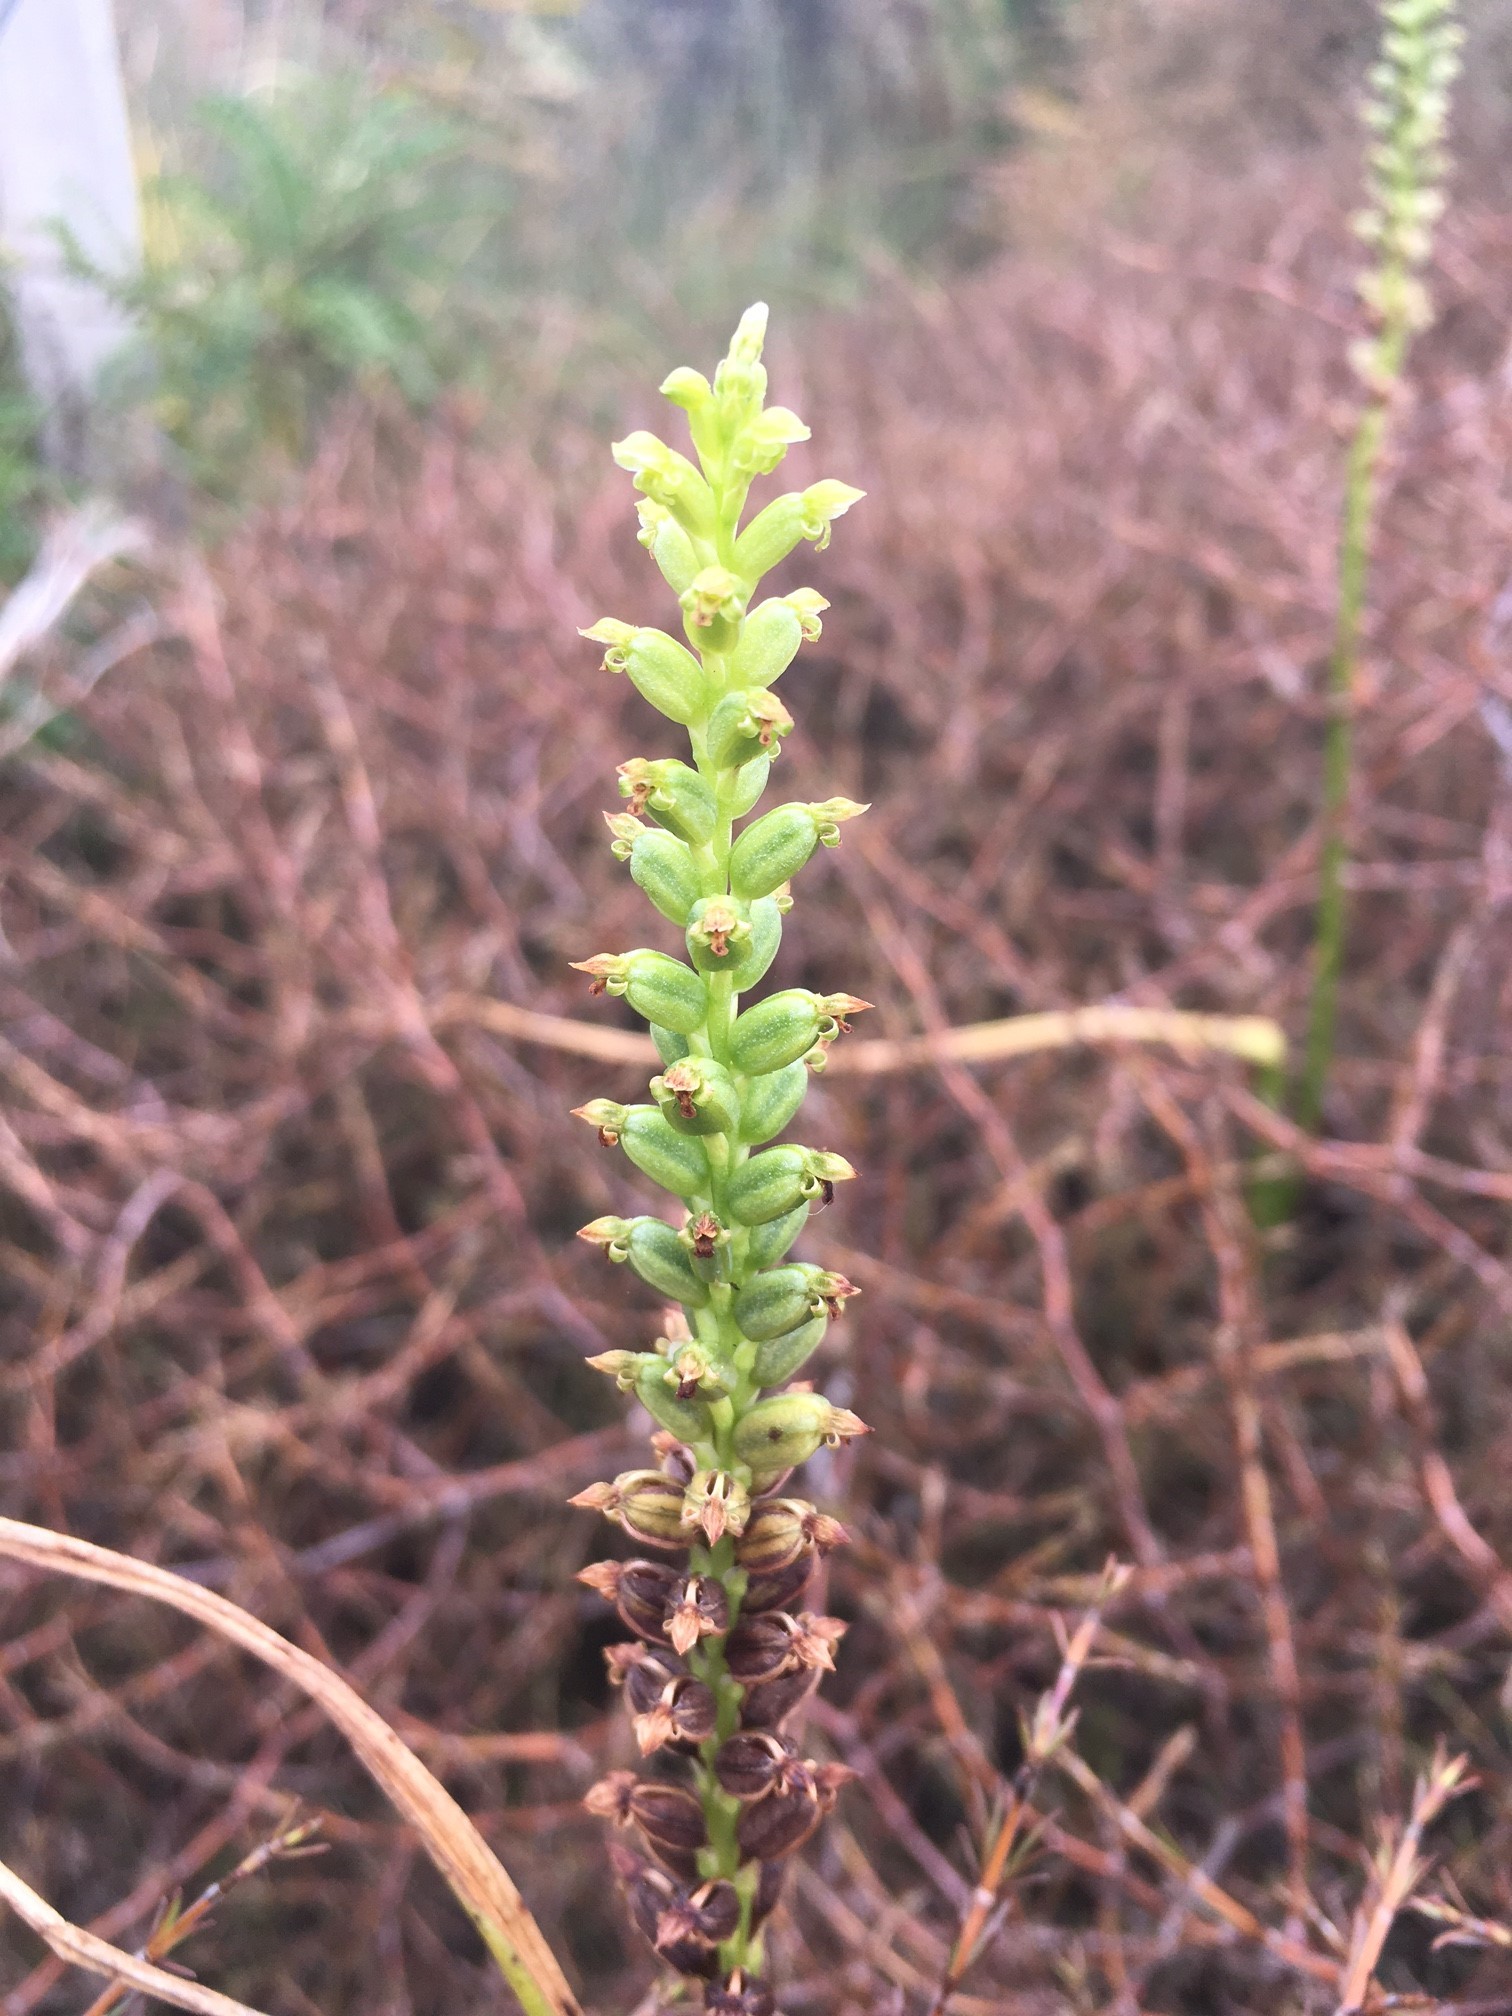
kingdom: Plantae
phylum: Tracheophyta
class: Liliopsida
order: Asparagales
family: Orchidaceae
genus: Microtis
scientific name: Microtis unifolia
